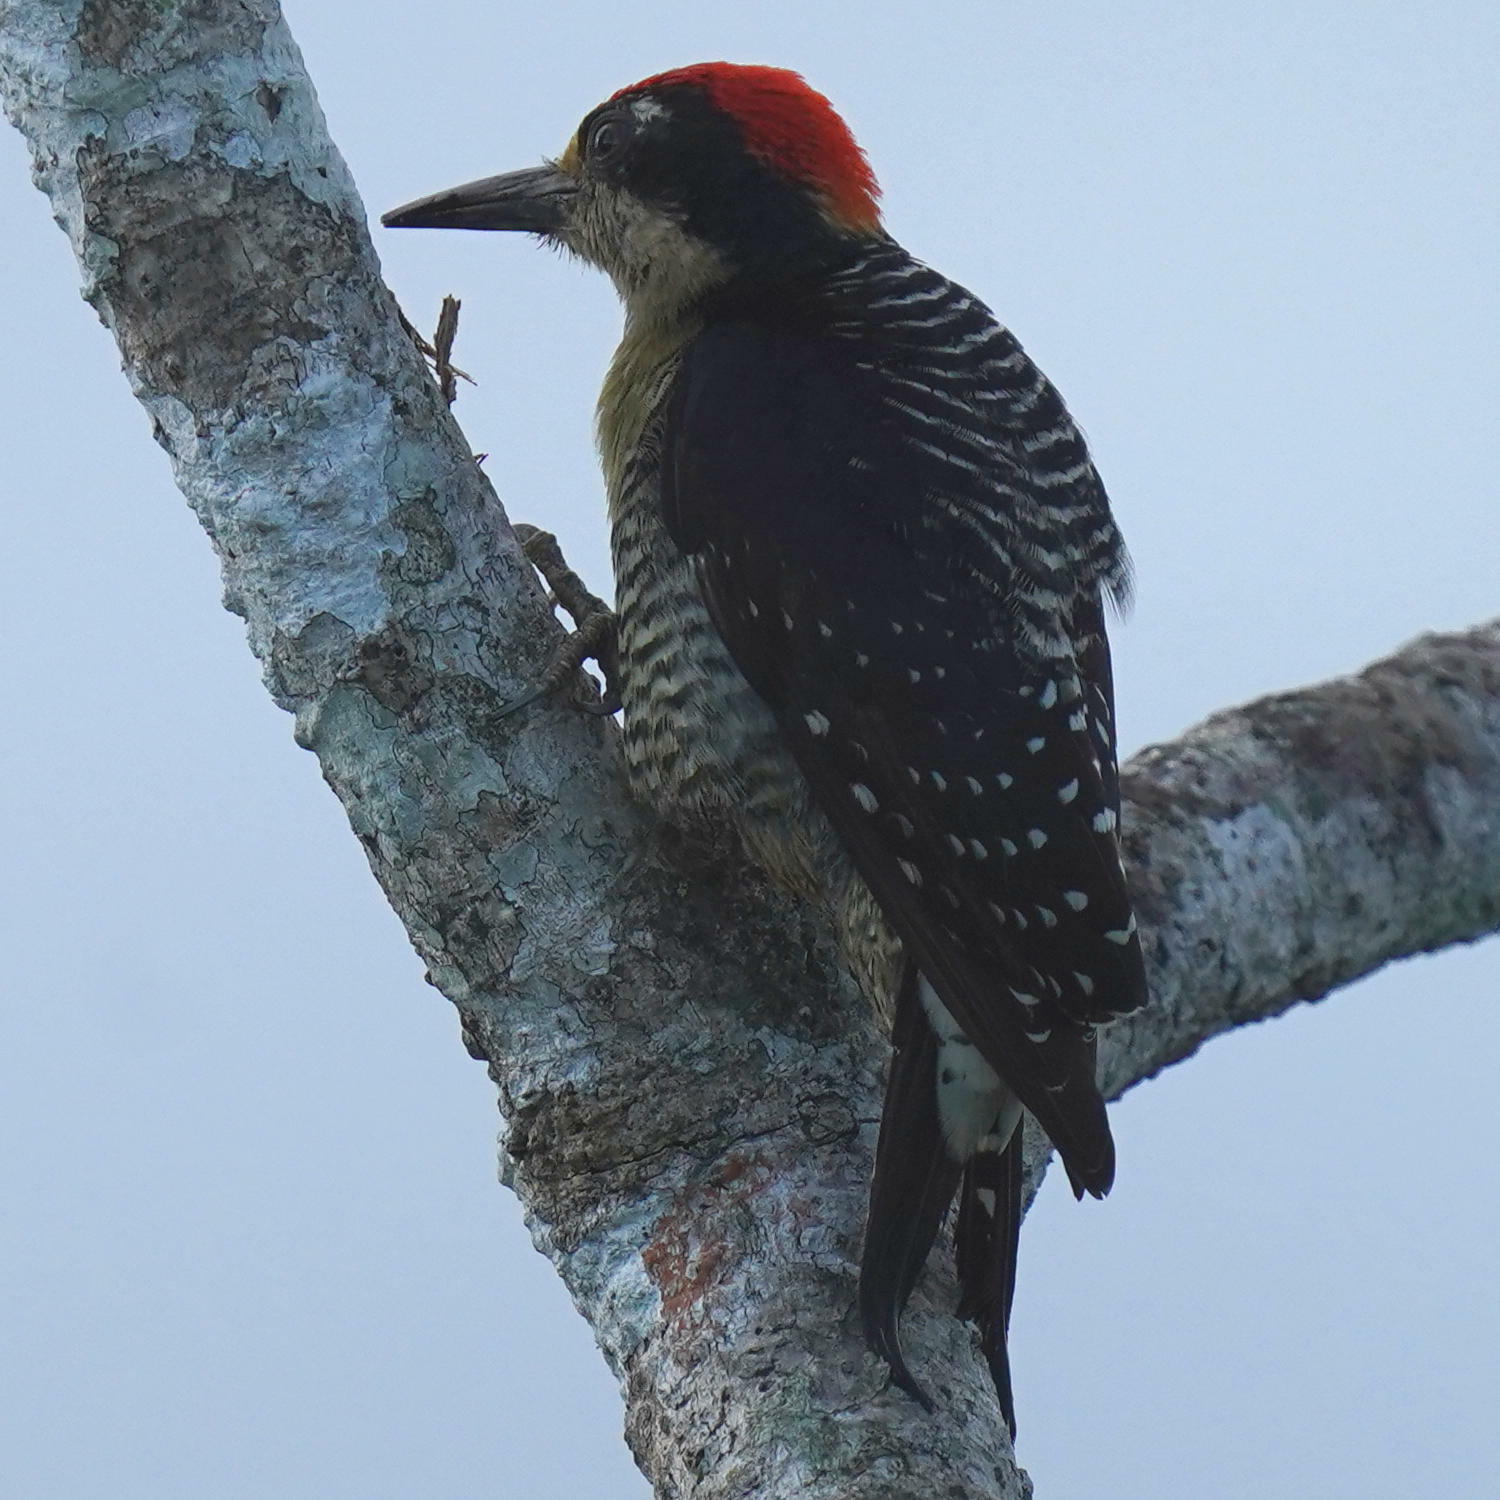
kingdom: Animalia
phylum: Chordata
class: Aves
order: Piciformes
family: Picidae
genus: Melanerpes
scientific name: Melanerpes pucherani
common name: Black-cheeked woodpecker
